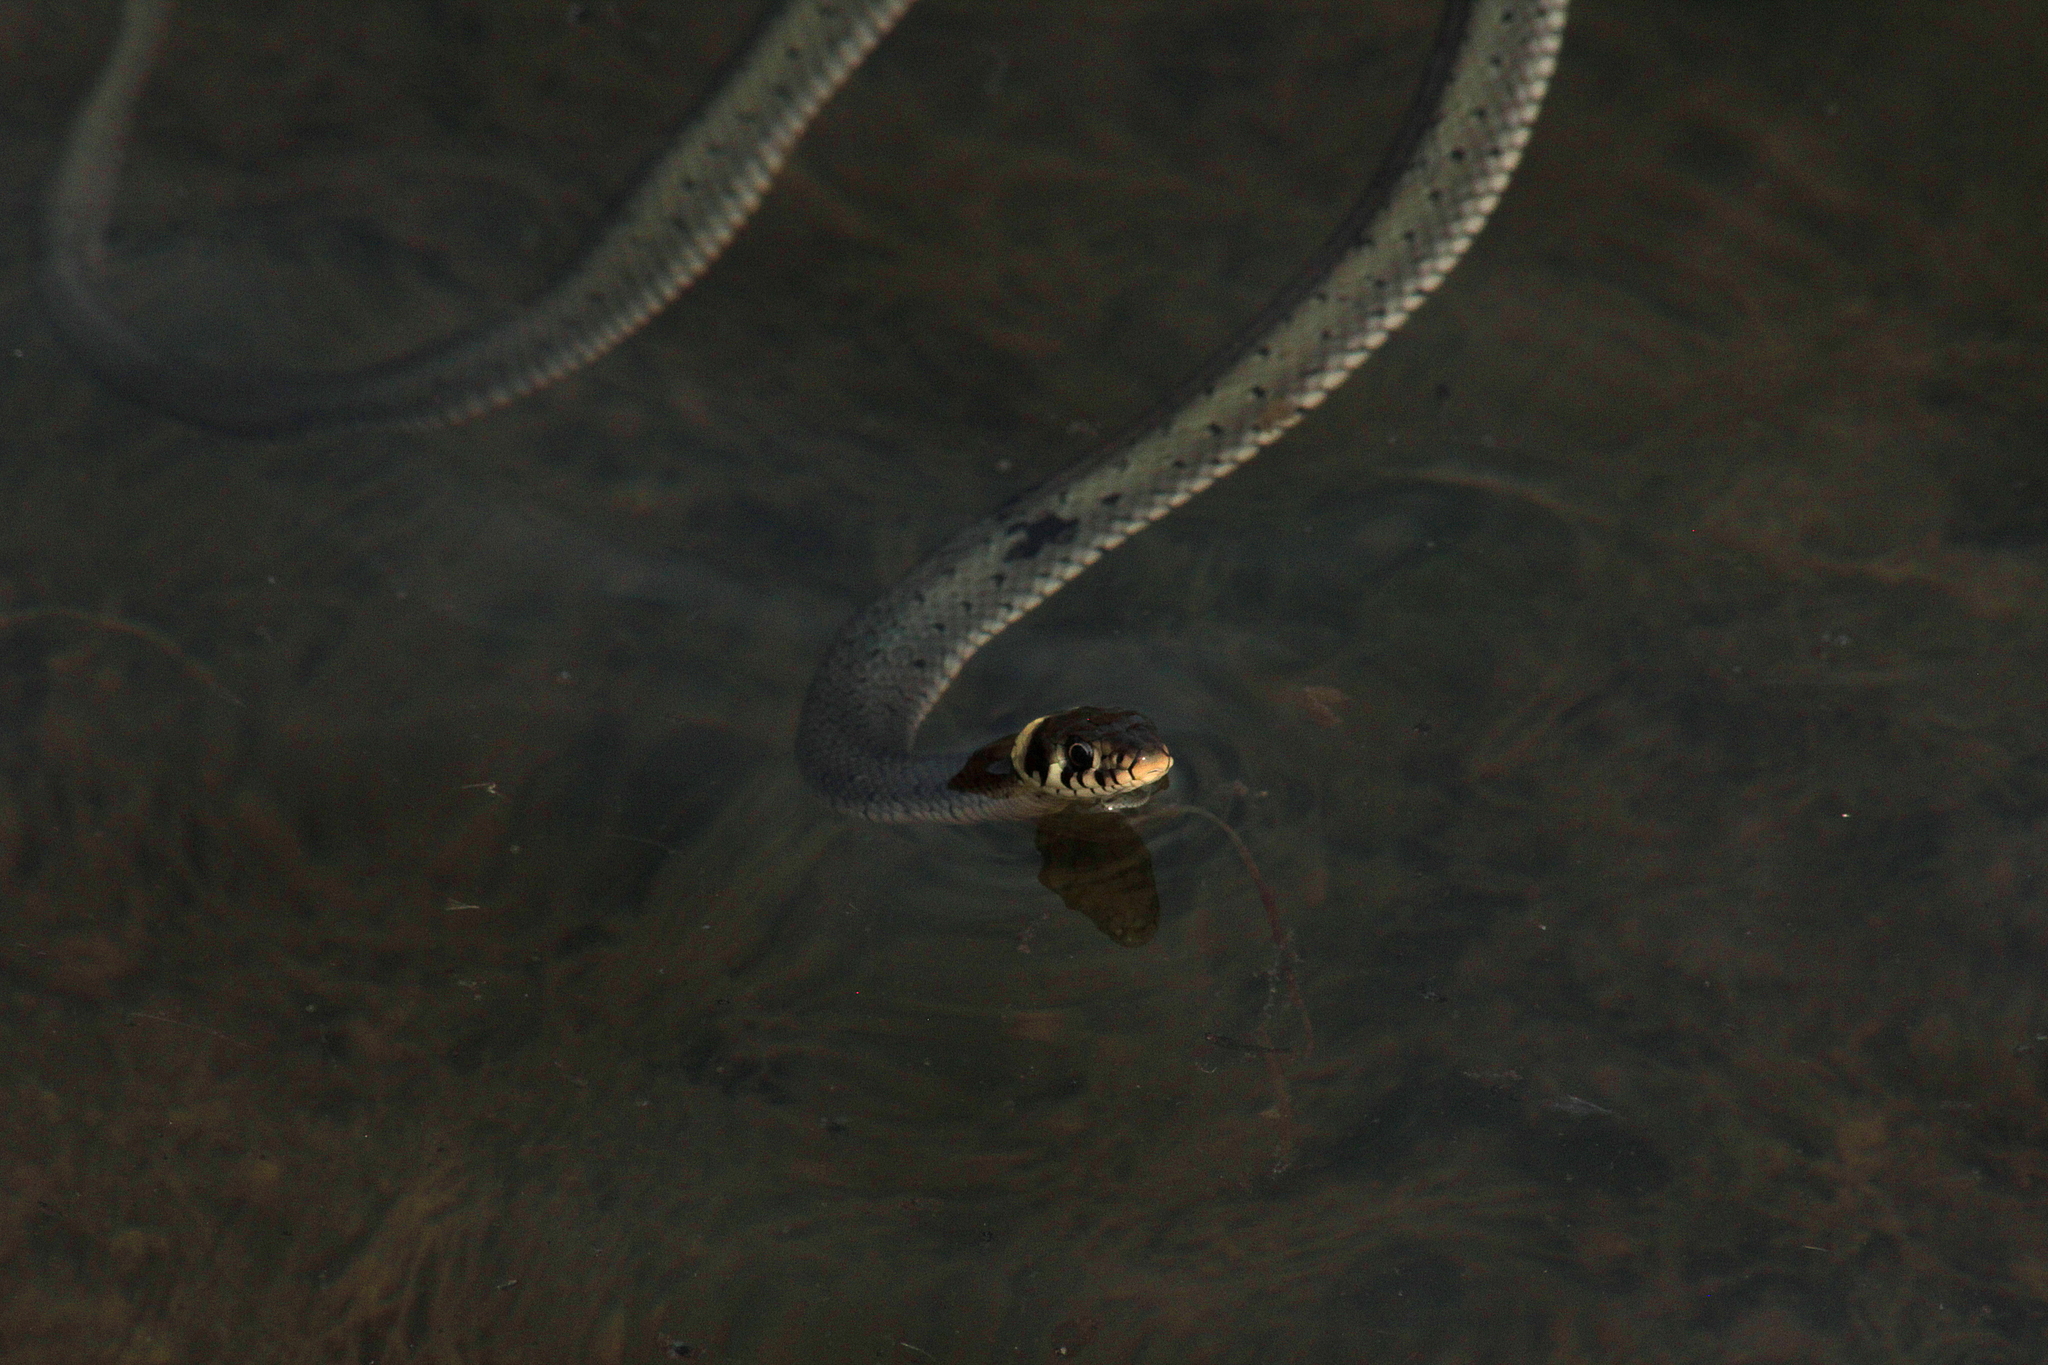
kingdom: Animalia
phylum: Chordata
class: Squamata
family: Colubridae
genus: Natrix
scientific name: Natrix natrix
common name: Grass snake
